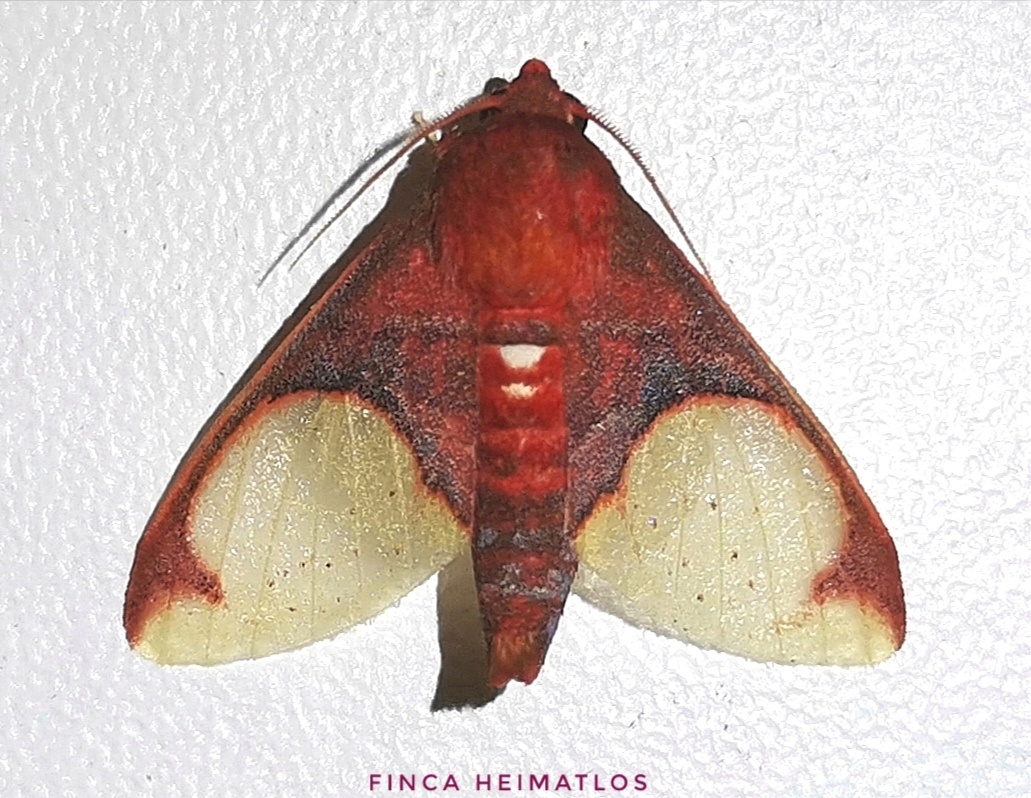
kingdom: Animalia
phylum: Arthropoda
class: Insecta
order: Lepidoptera
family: Erebidae
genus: Neonerita
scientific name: Neonerita incarnata
